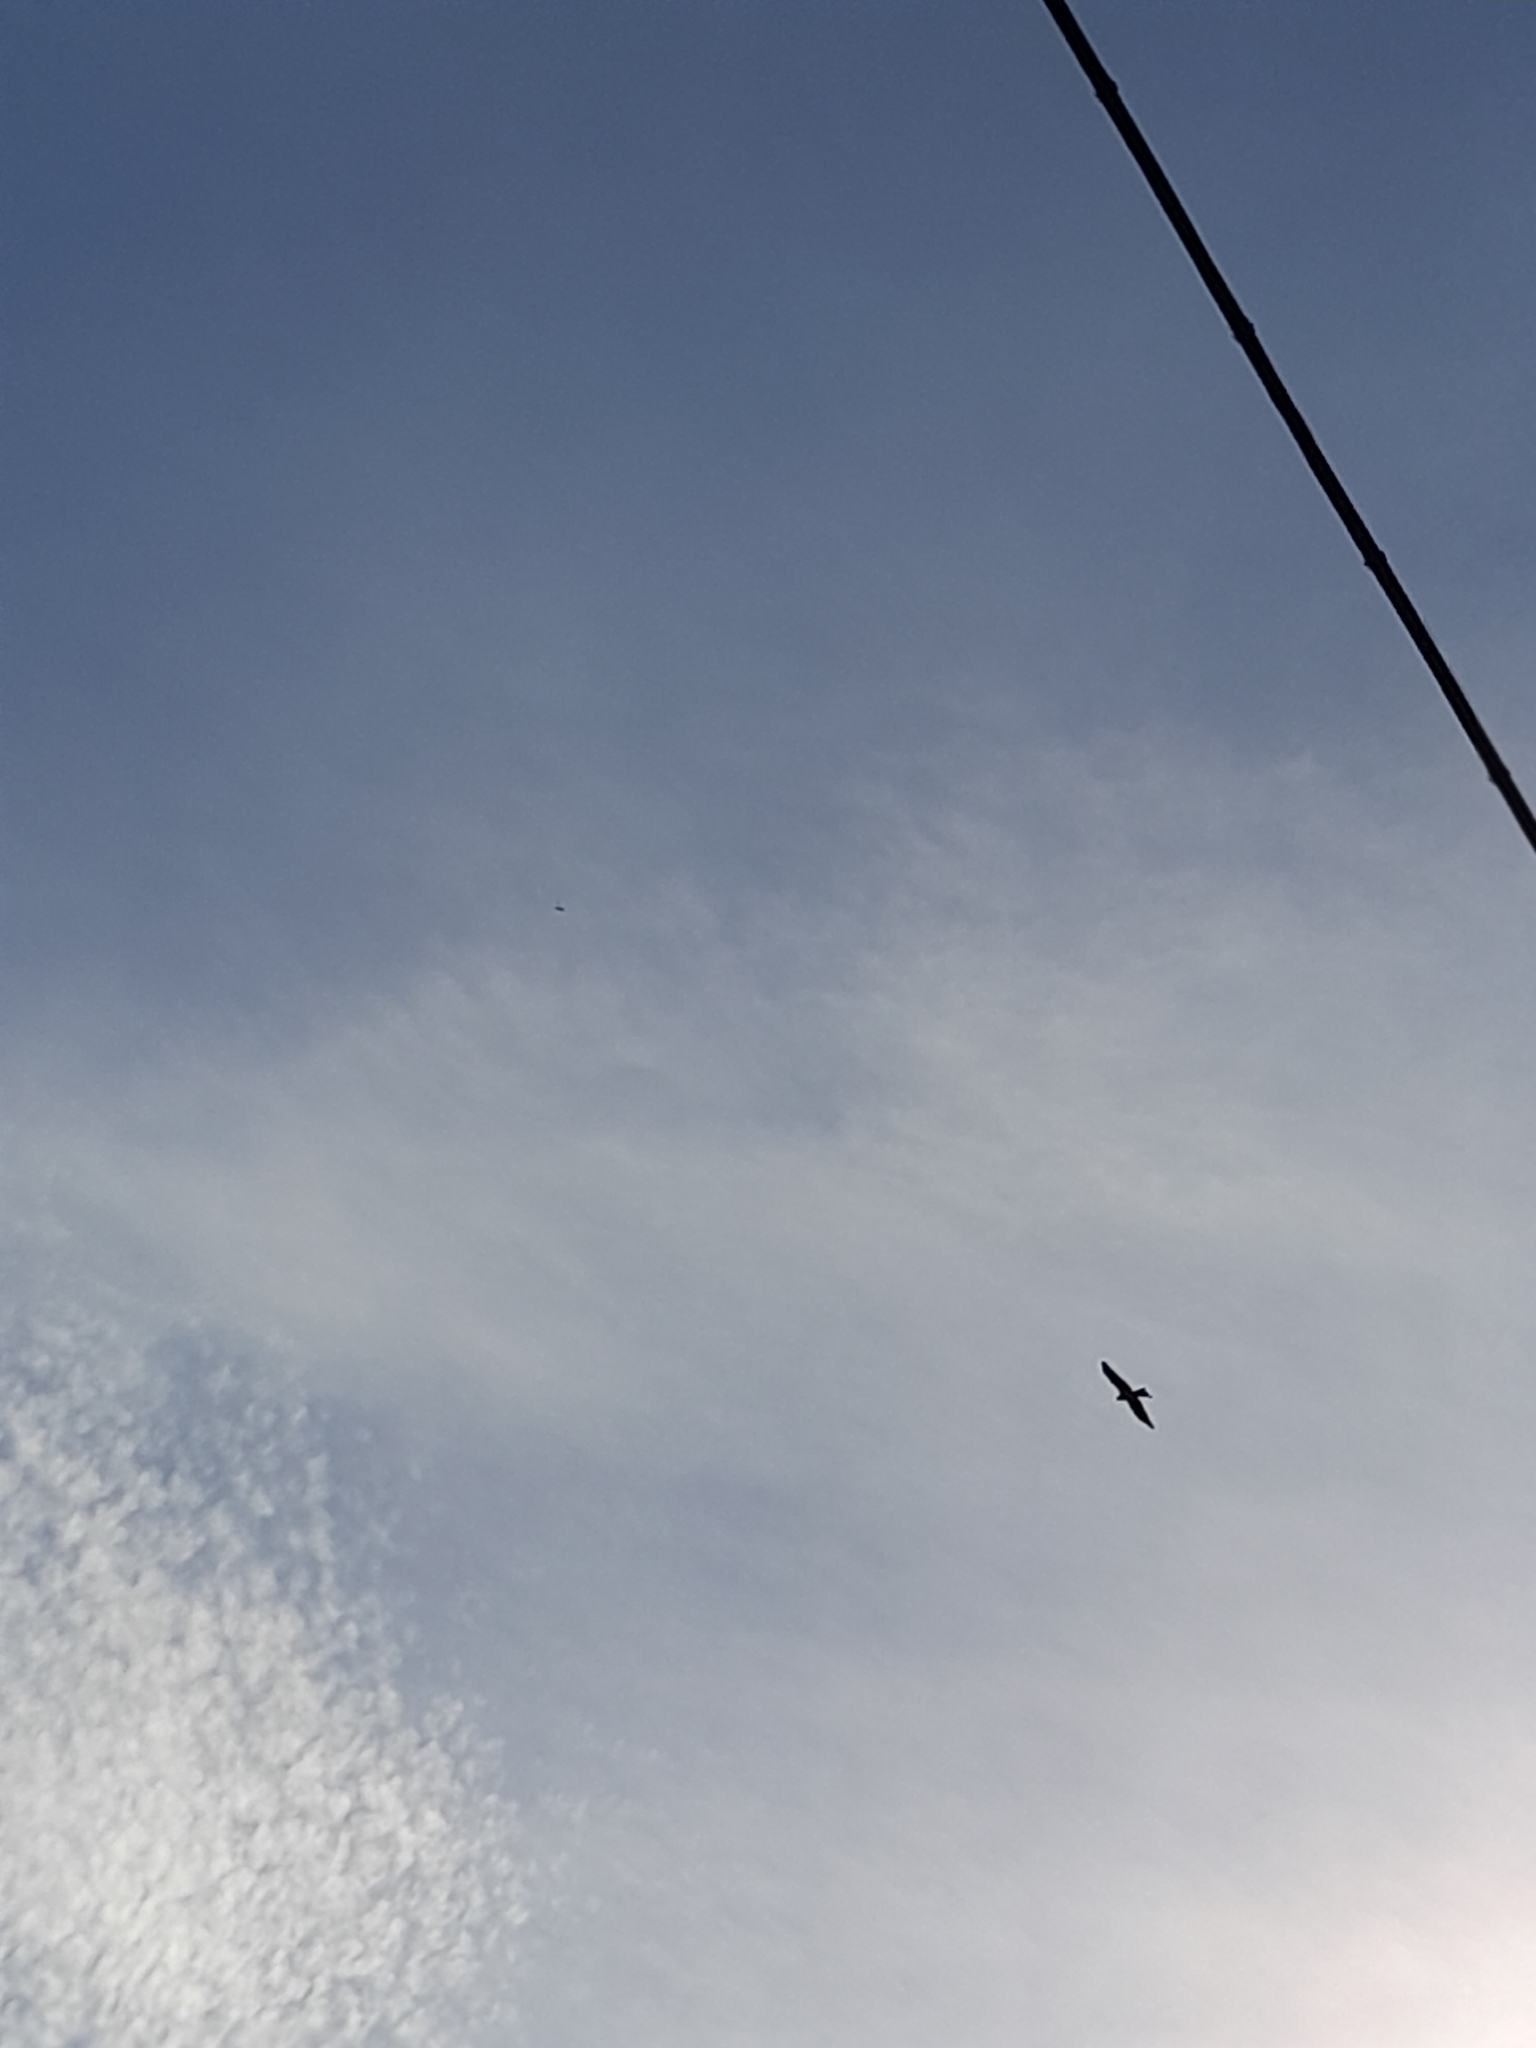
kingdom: Animalia
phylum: Chordata
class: Aves
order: Accipitriformes
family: Accipitridae
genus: Milvus
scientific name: Milvus milvus
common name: Red kite
